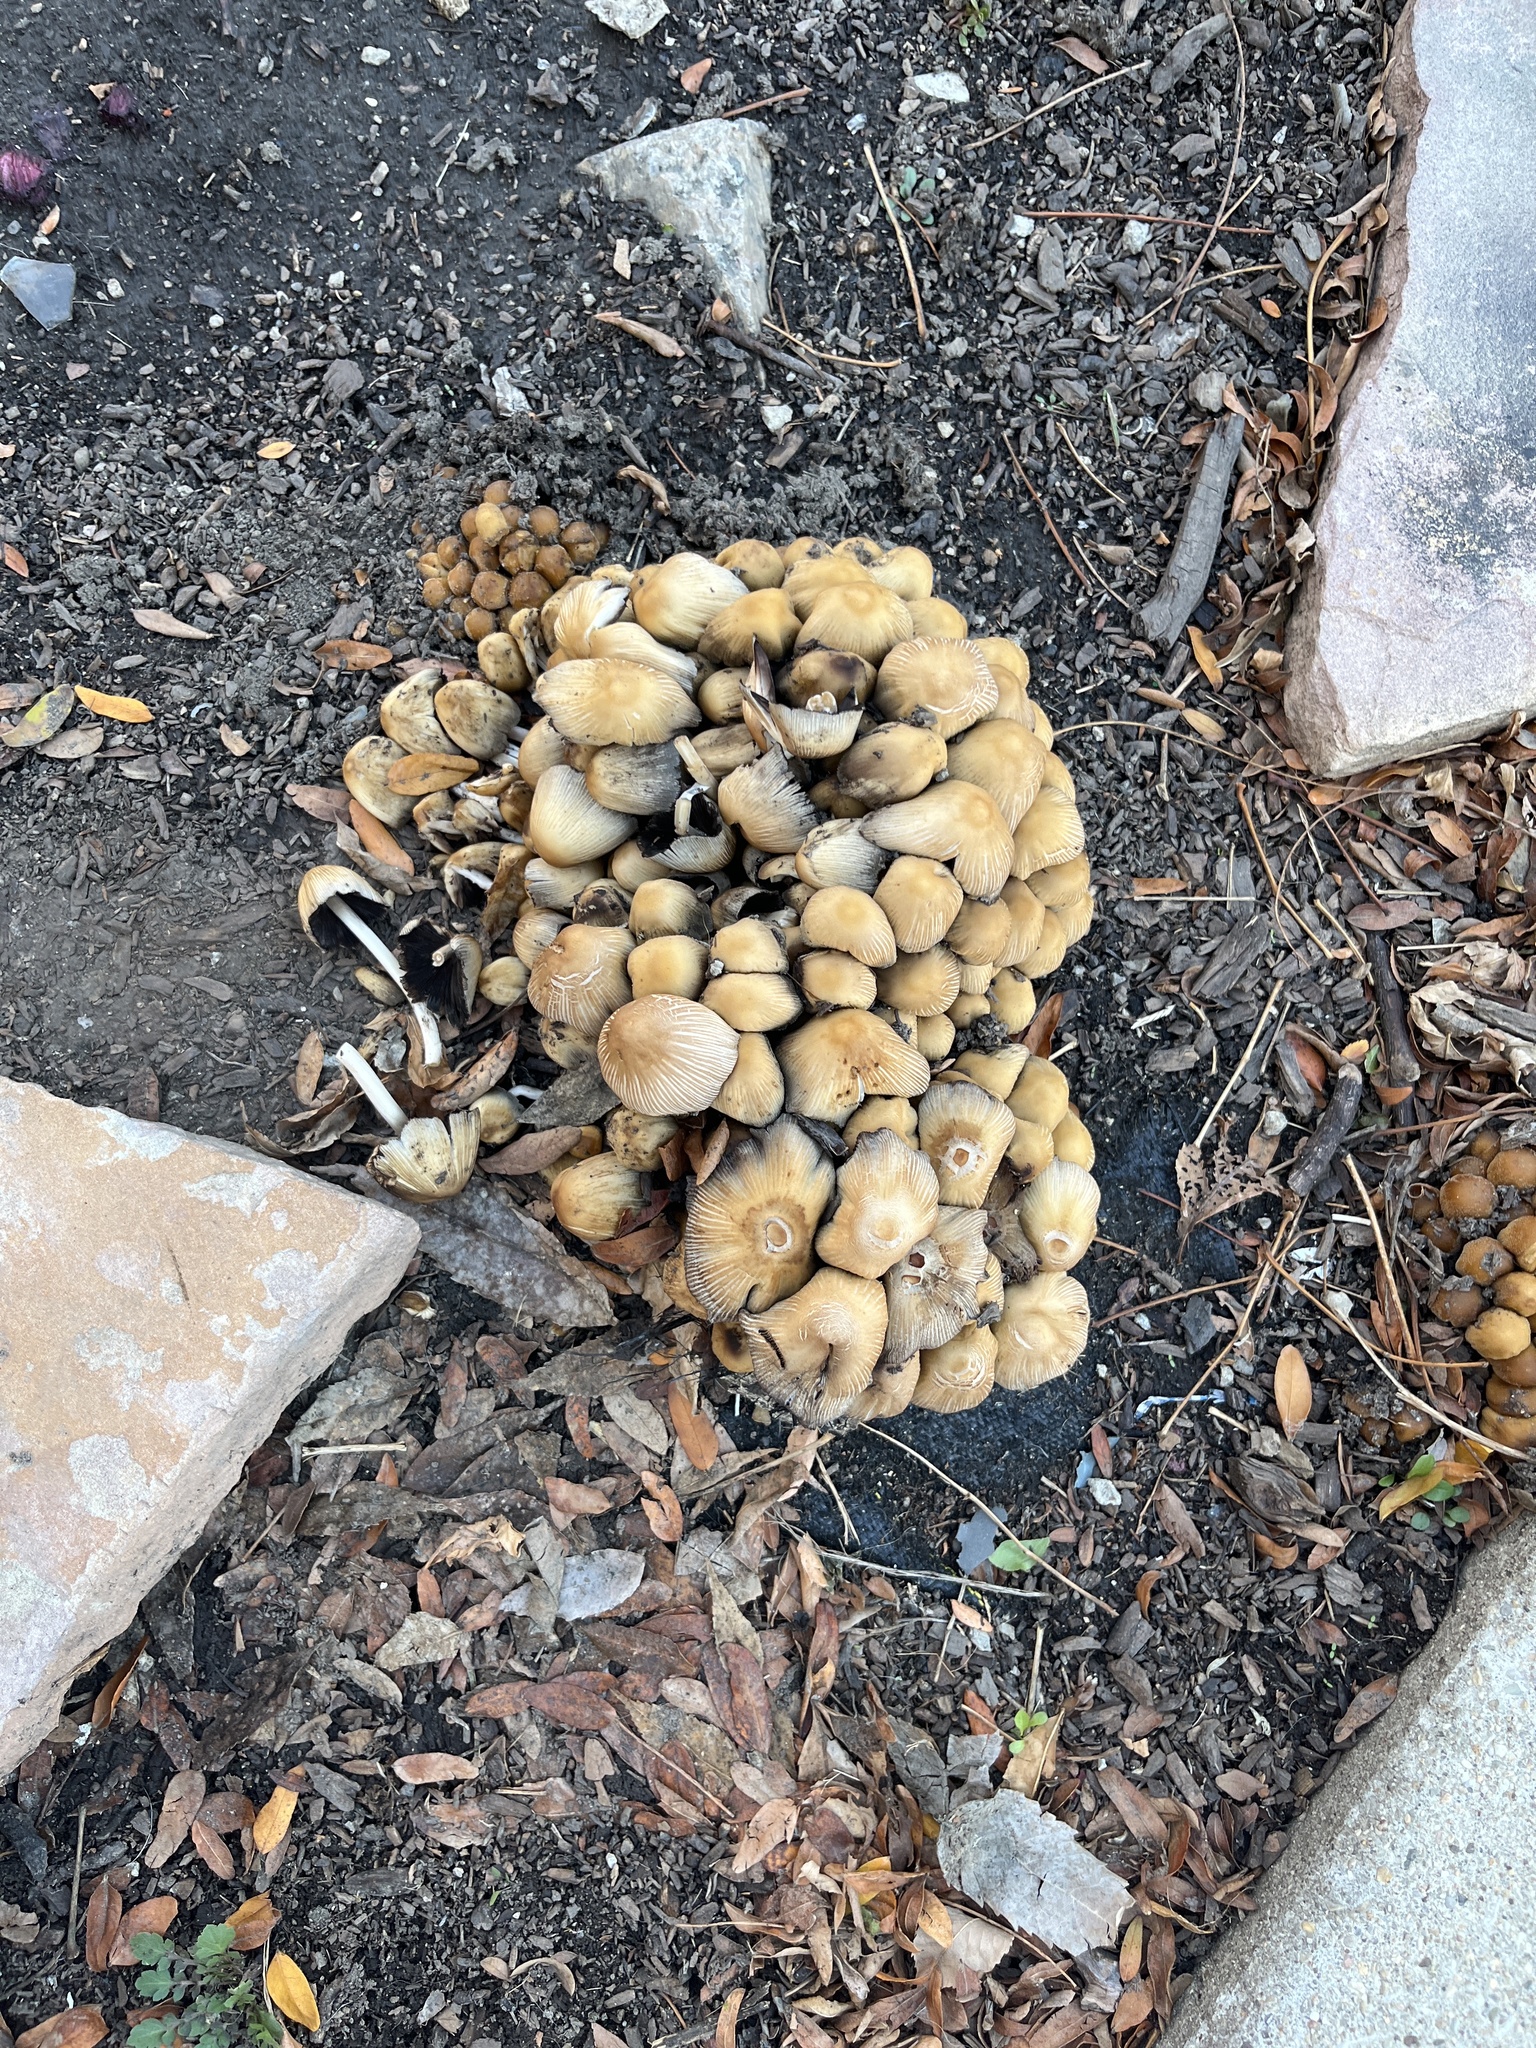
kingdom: Fungi
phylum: Basidiomycota
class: Agaricomycetes
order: Agaricales
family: Psathyrellaceae
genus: Coprinellus
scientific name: Coprinellus micaceus
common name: Glistening ink-cap
